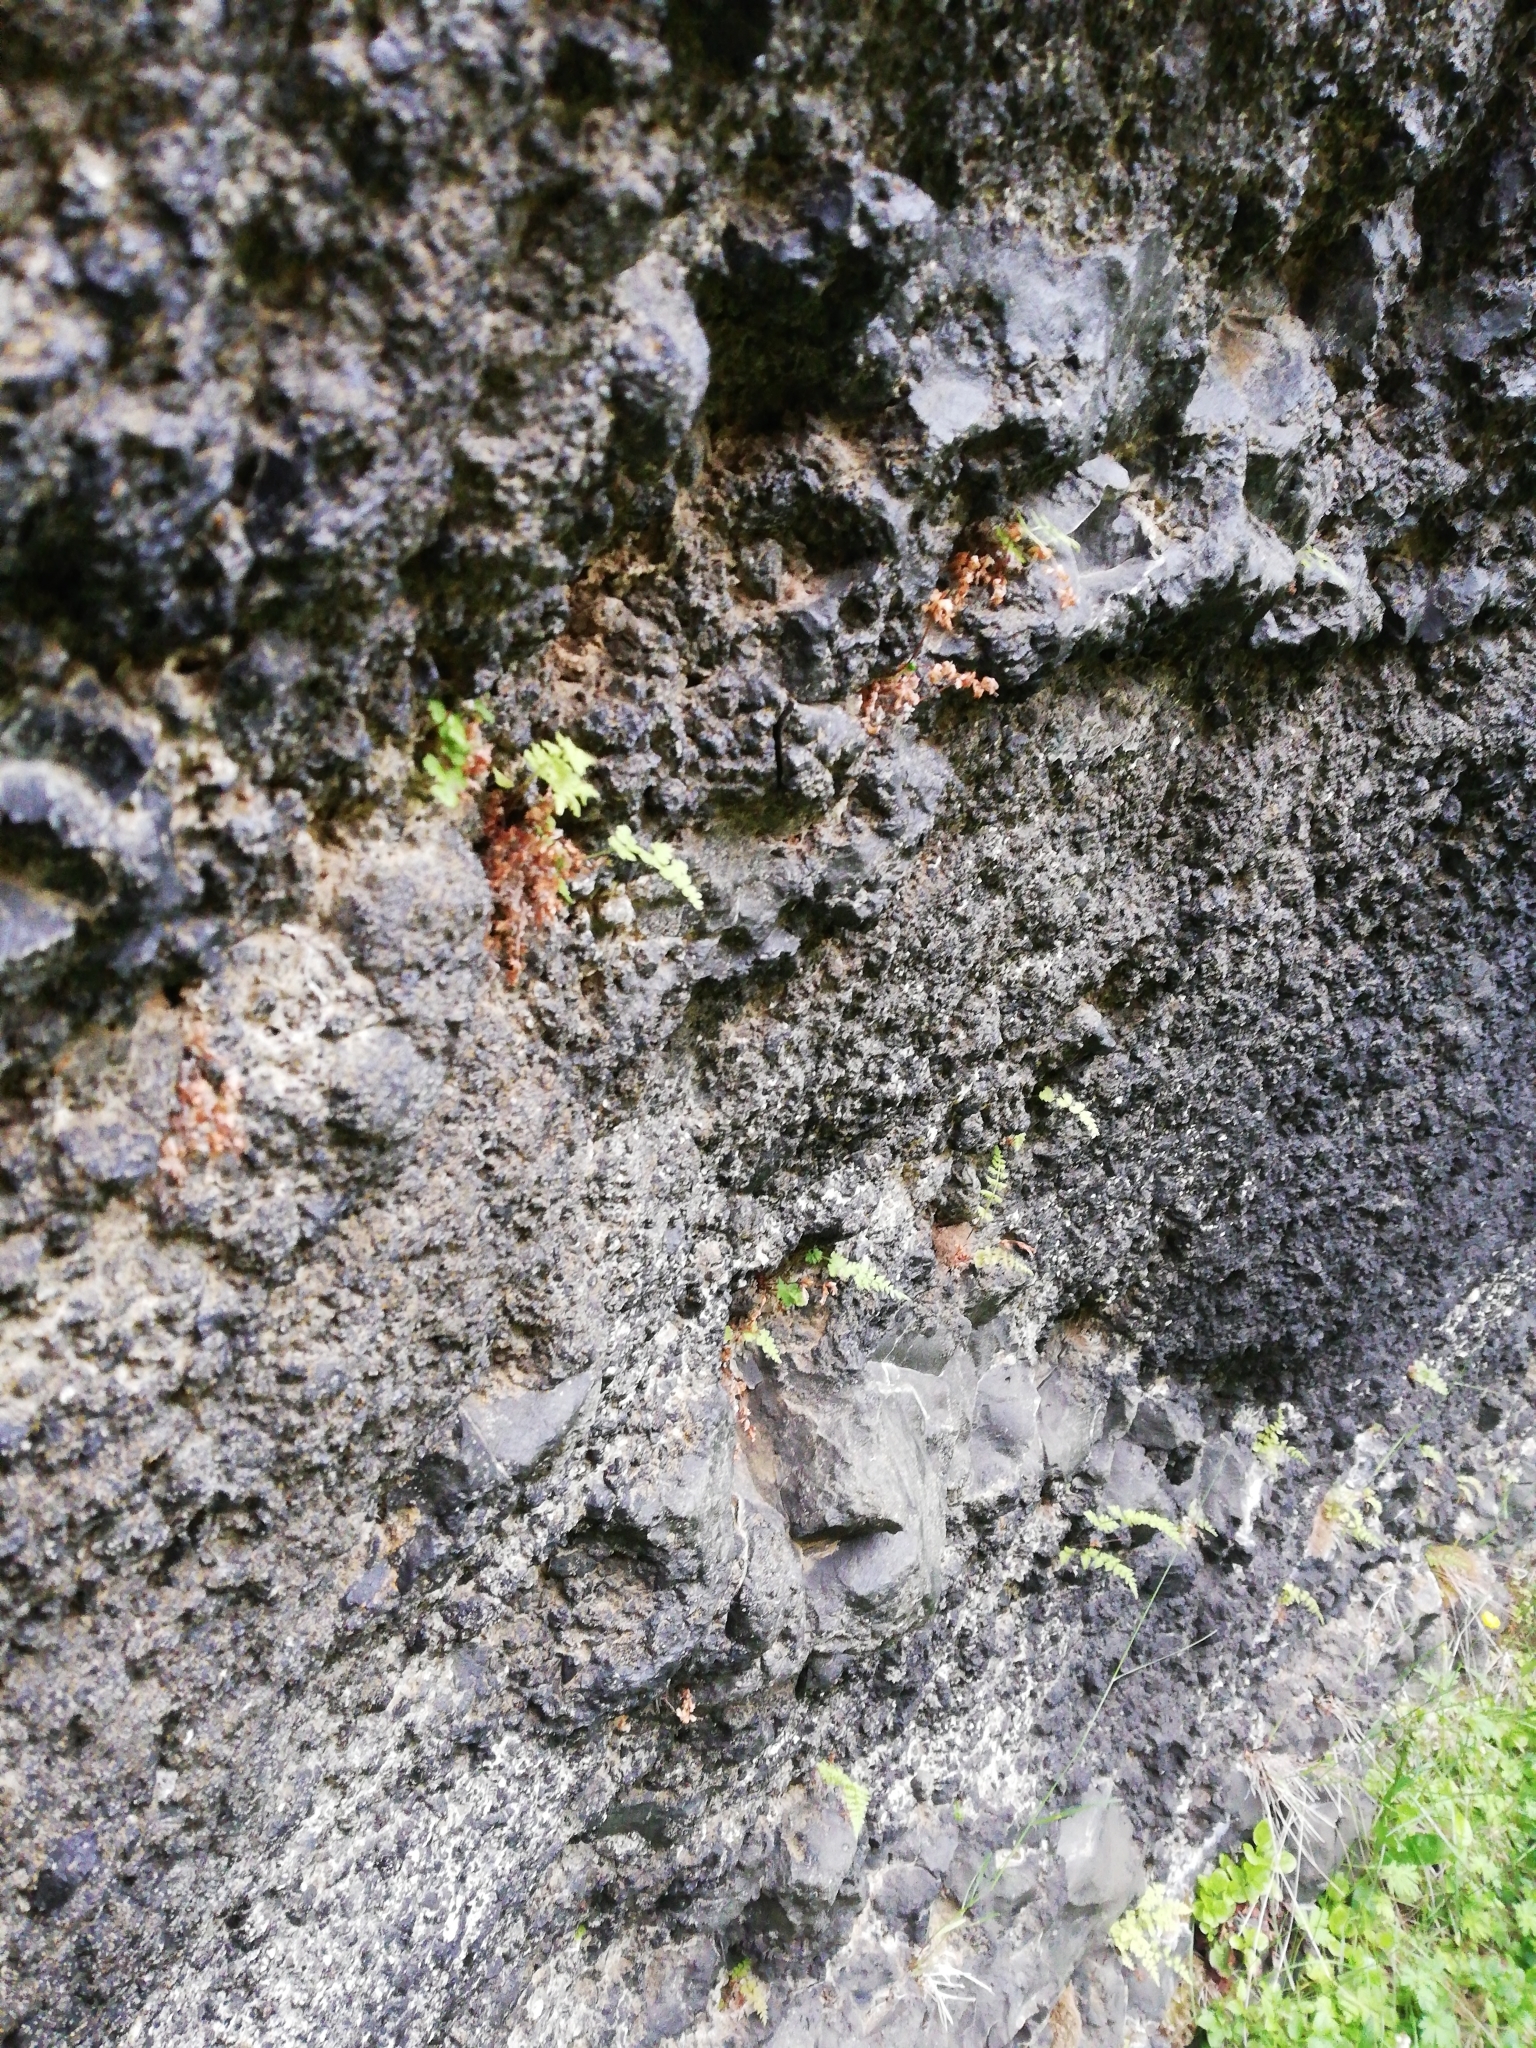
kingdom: Plantae
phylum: Tracheophyta
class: Polypodiopsida
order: Polypodiales
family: Cystopteridaceae
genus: Cystopteris
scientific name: Cystopteris fragilis
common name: Brittle bladder fern
